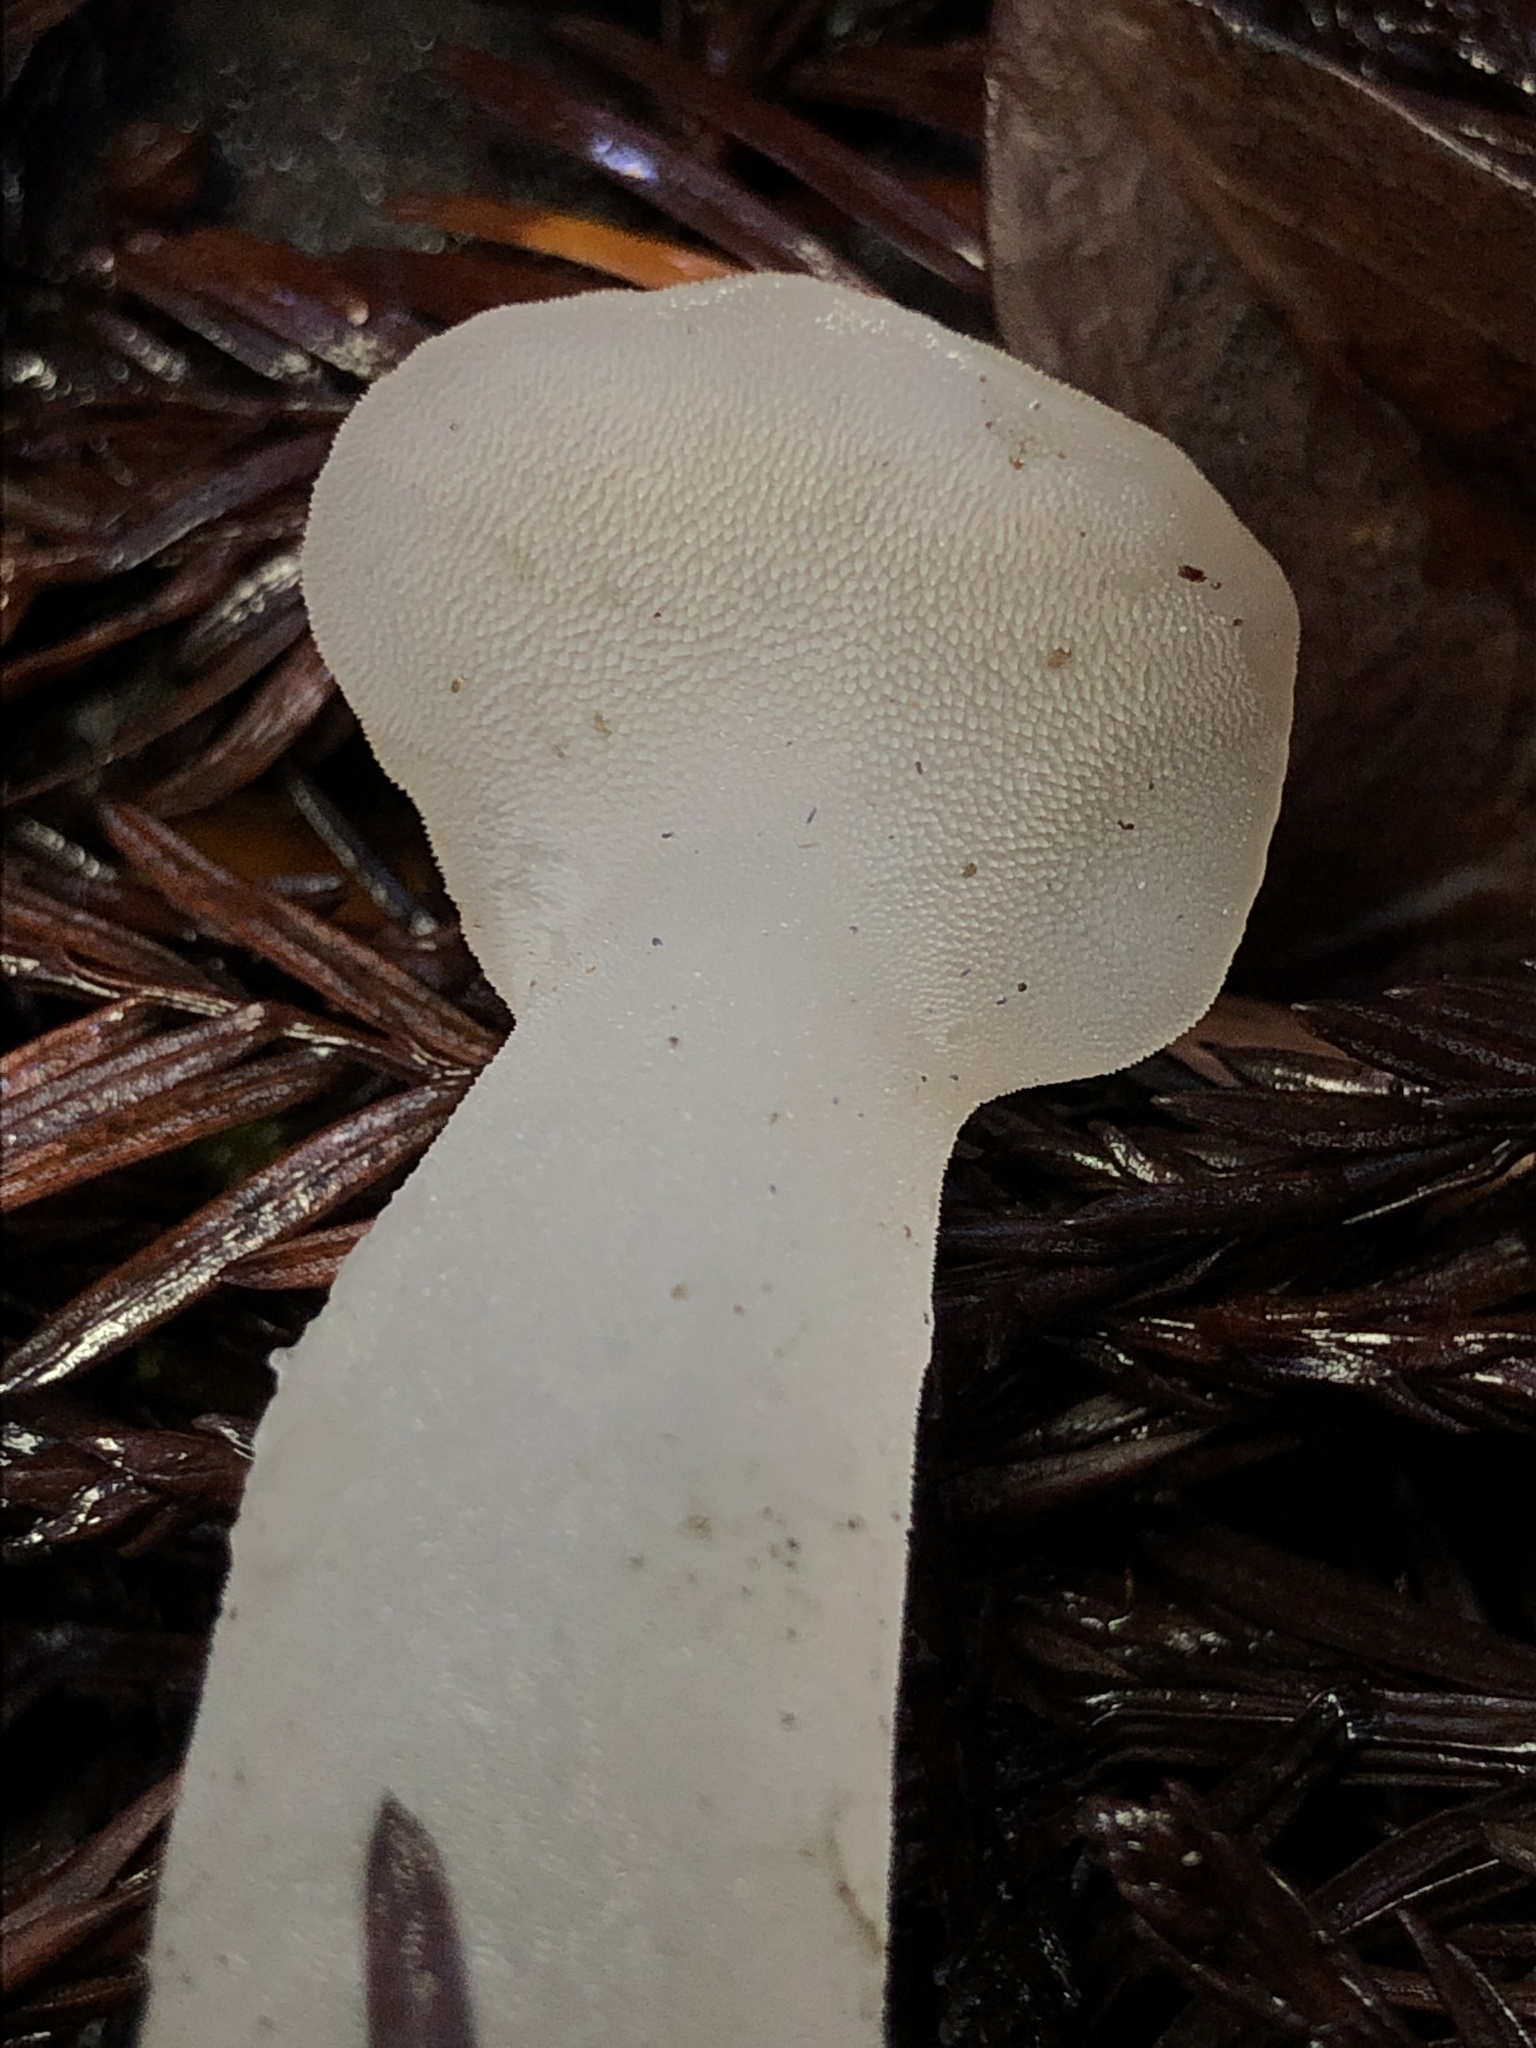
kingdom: Fungi
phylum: Basidiomycota
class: Agaricomycetes
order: Auriculariales
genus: Pseudohydnum
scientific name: Pseudohydnum gelatinosum
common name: Jelly tongue
